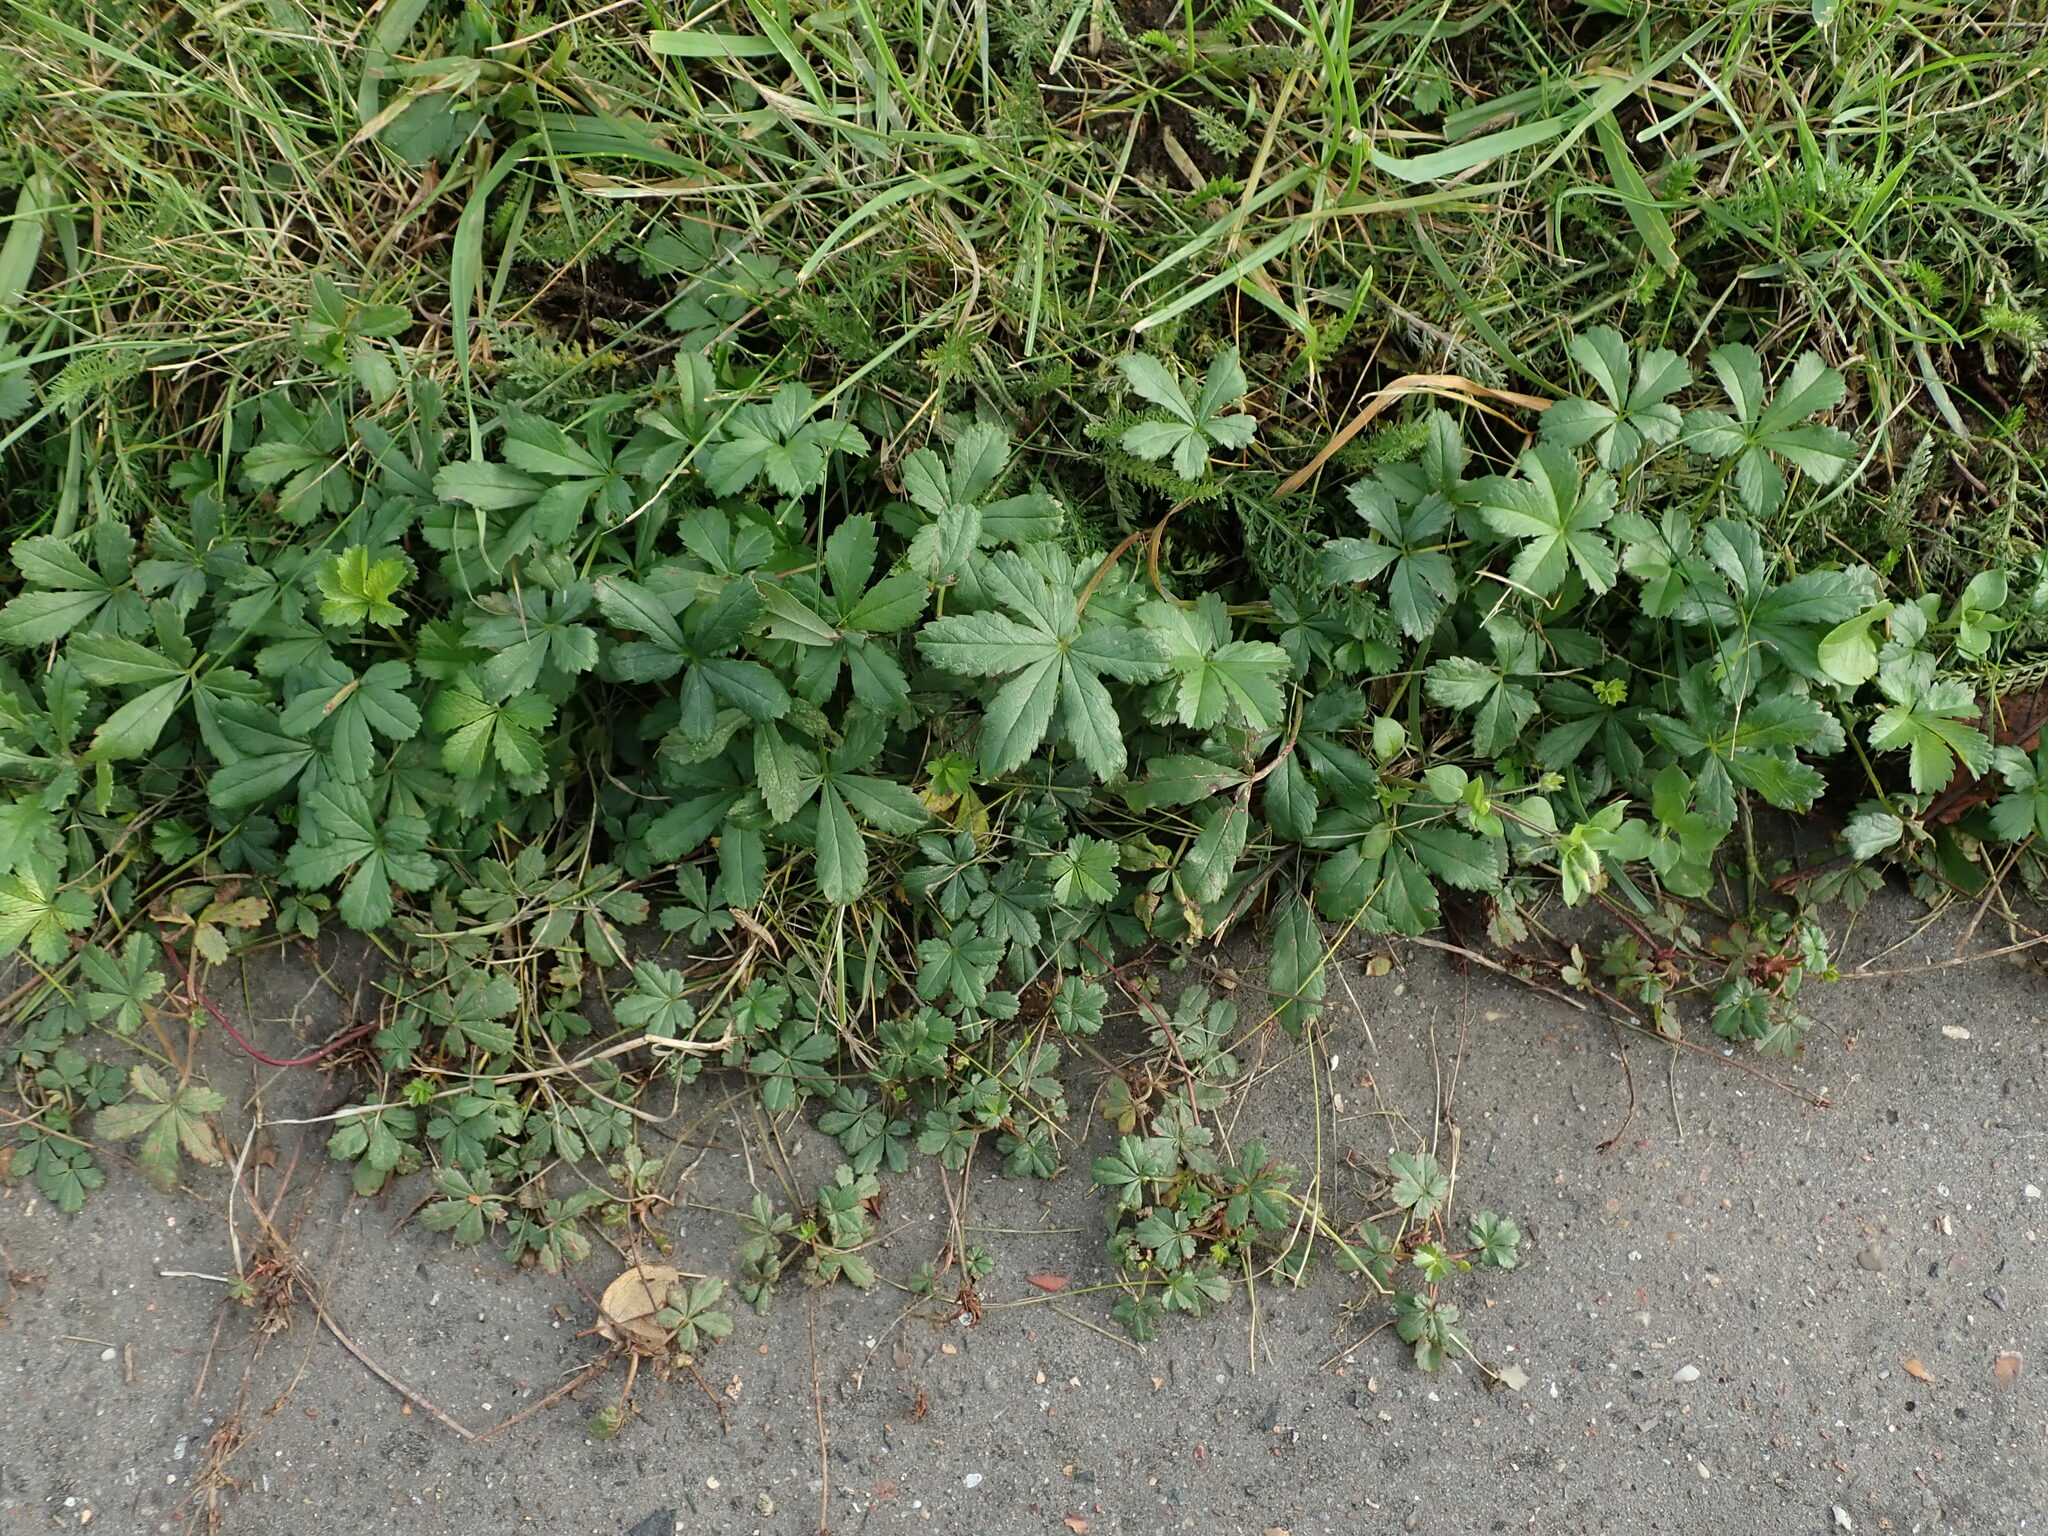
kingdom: Plantae
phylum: Tracheophyta
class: Magnoliopsida
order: Rosales
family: Rosaceae
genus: Potentilla
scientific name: Potentilla reptans
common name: Creeping cinquefoil
